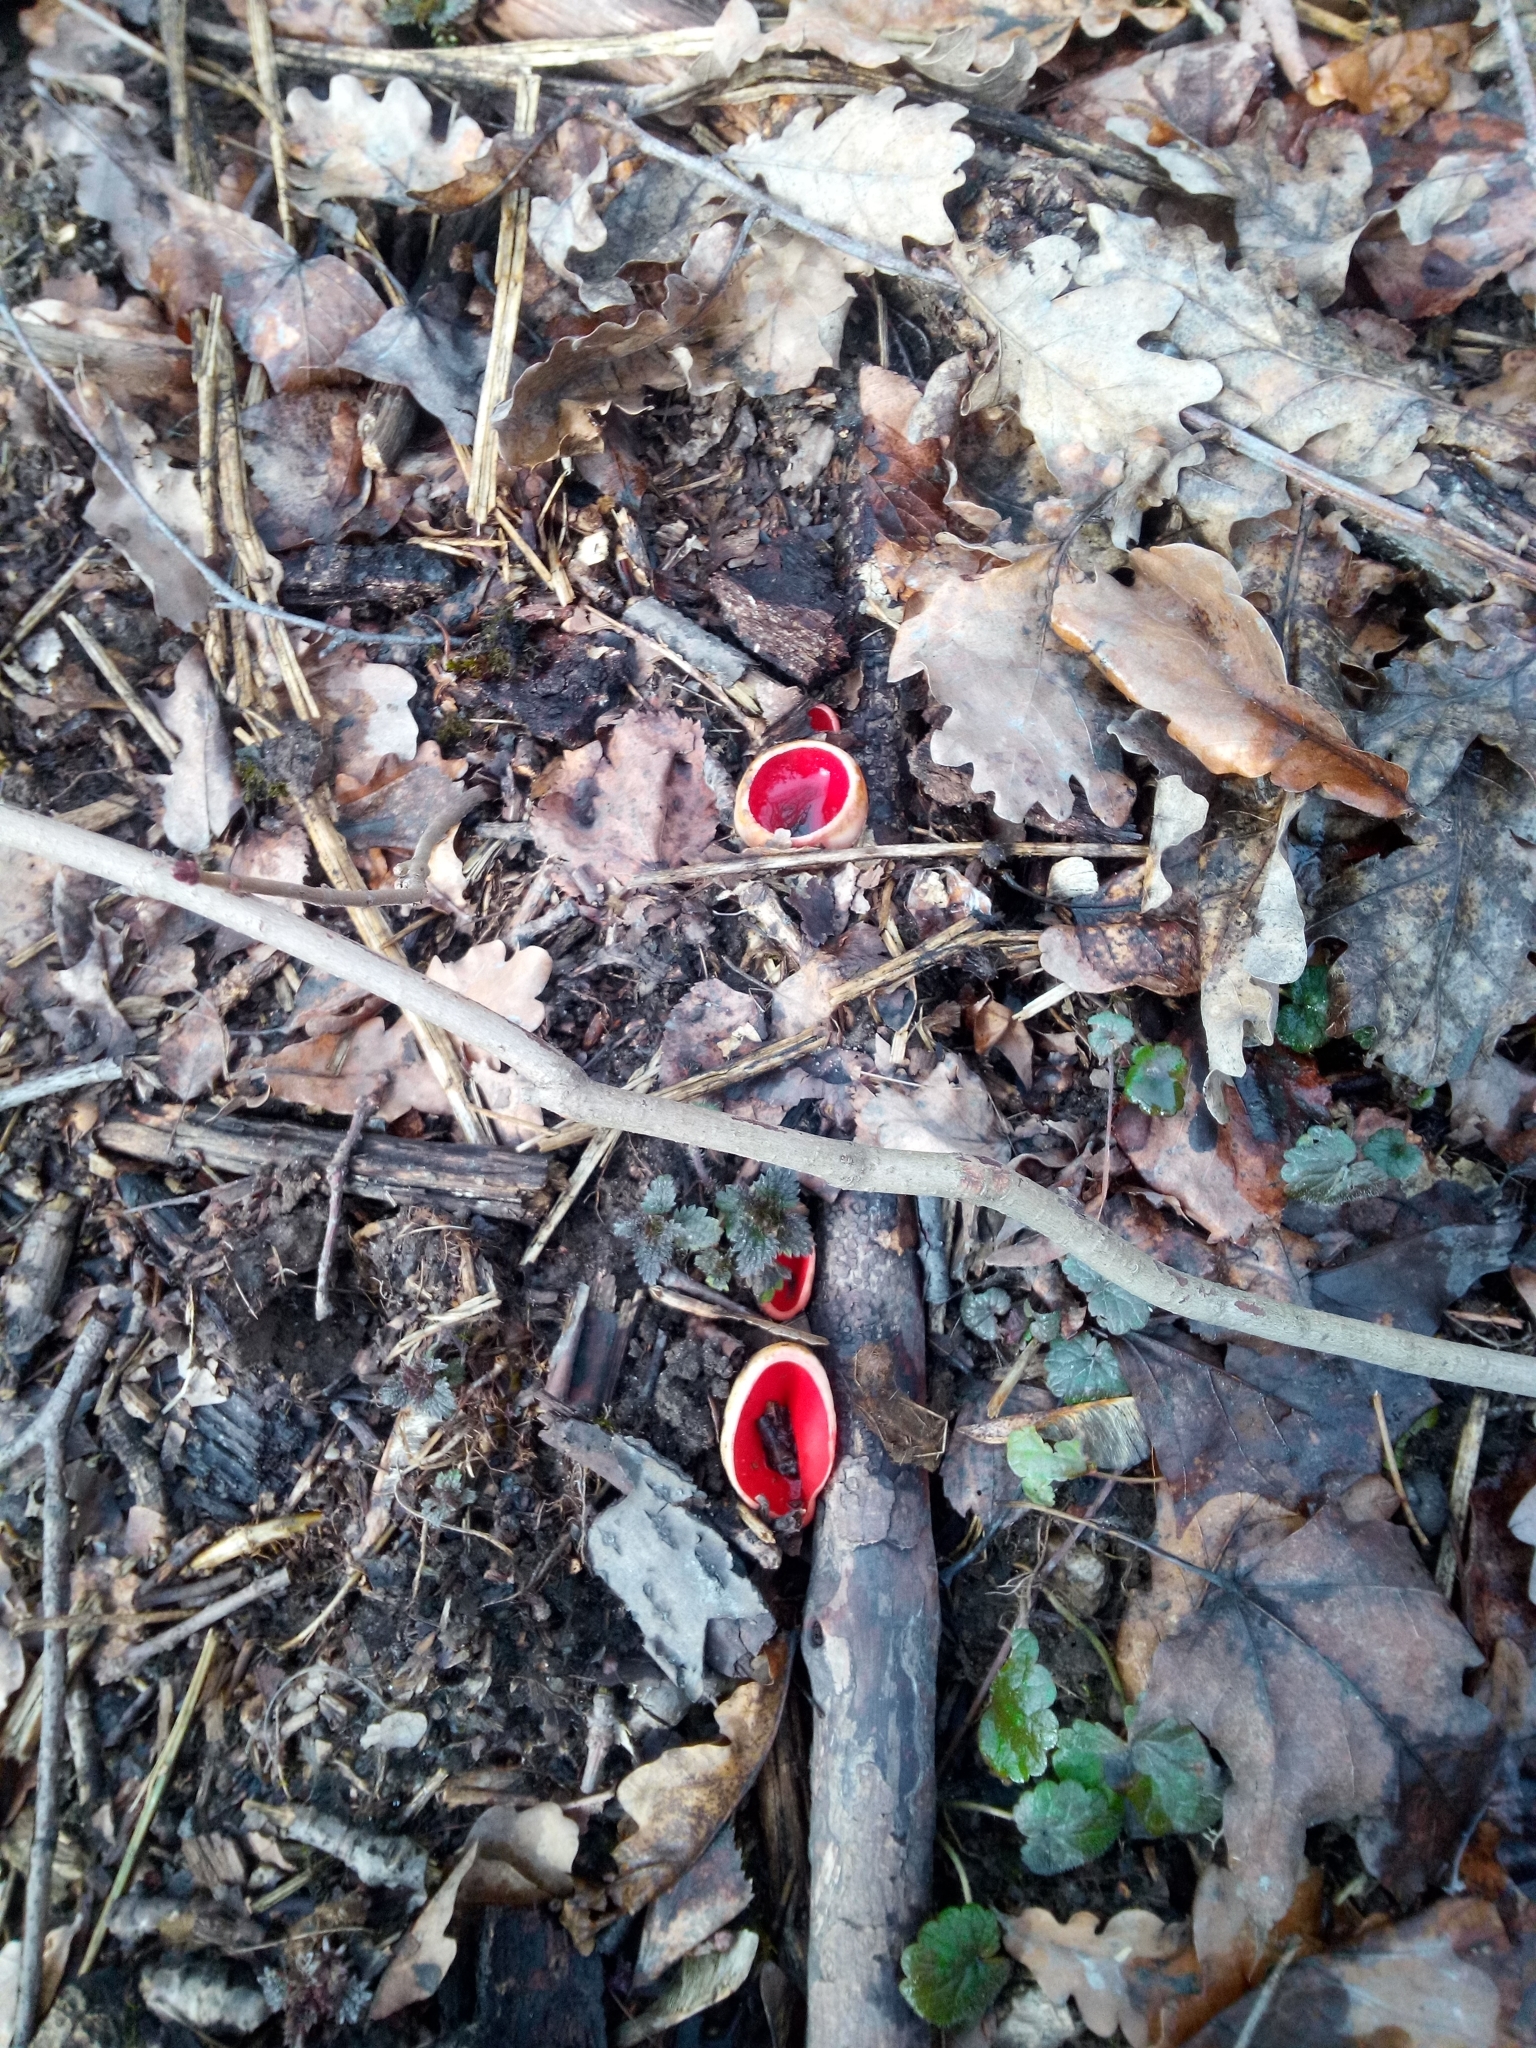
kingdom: Fungi
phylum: Ascomycota
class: Pezizomycetes
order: Pezizales
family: Sarcoscyphaceae
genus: Sarcoscypha
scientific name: Sarcoscypha austriaca
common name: Scarlet elfcup
